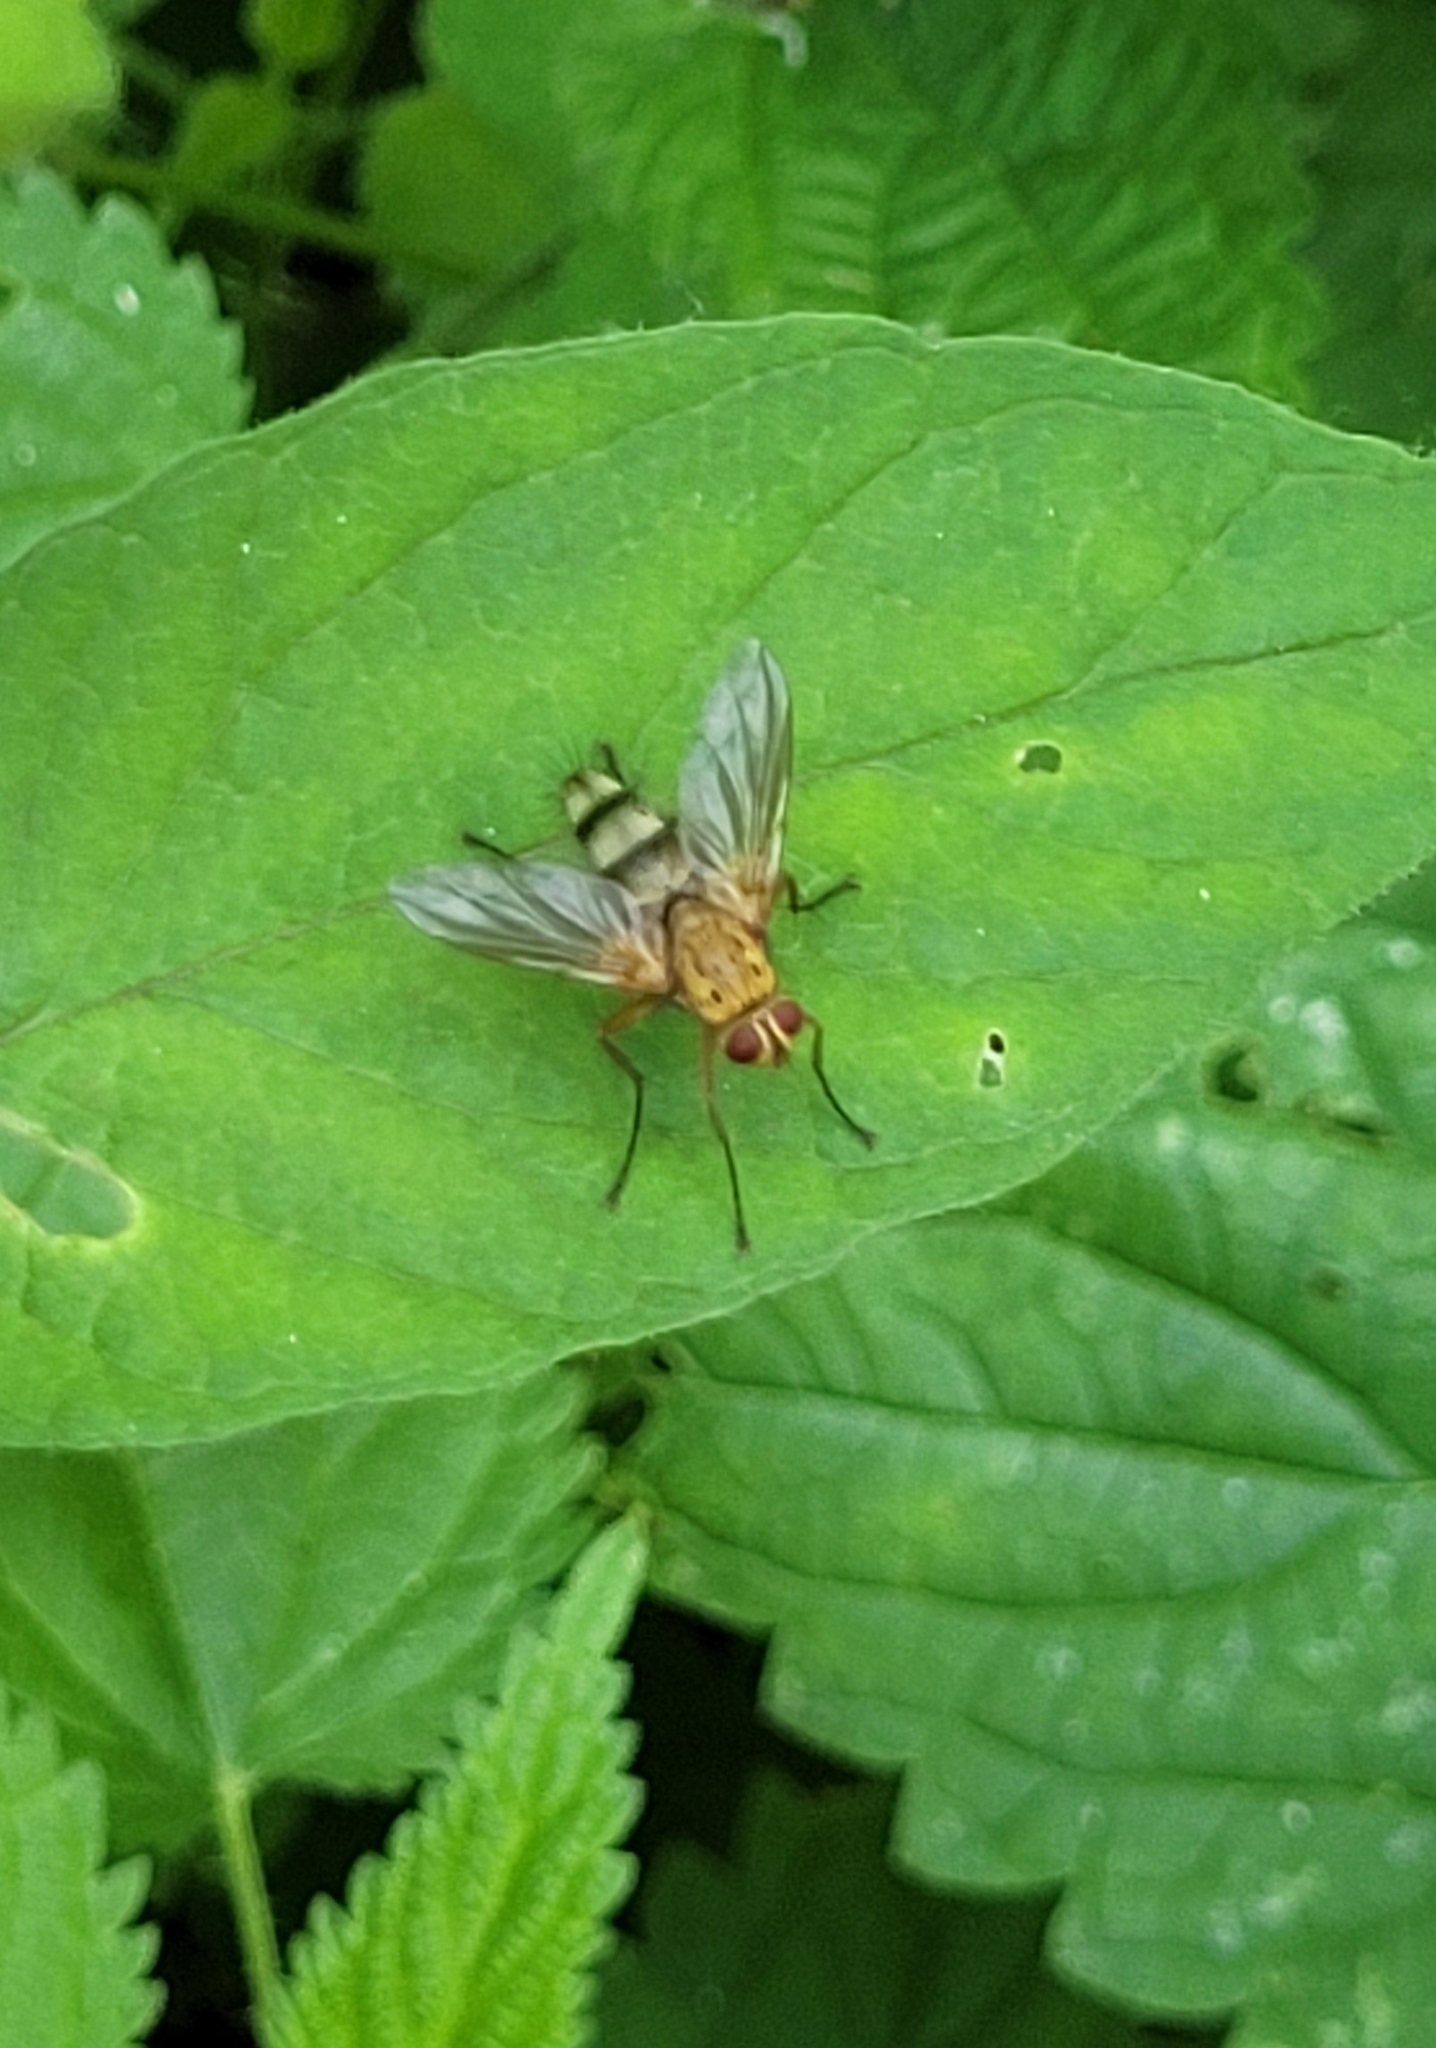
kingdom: Animalia
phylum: Arthropoda
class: Insecta
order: Diptera
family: Tachinidae
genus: Dexiosoma
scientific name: Dexiosoma caninum
